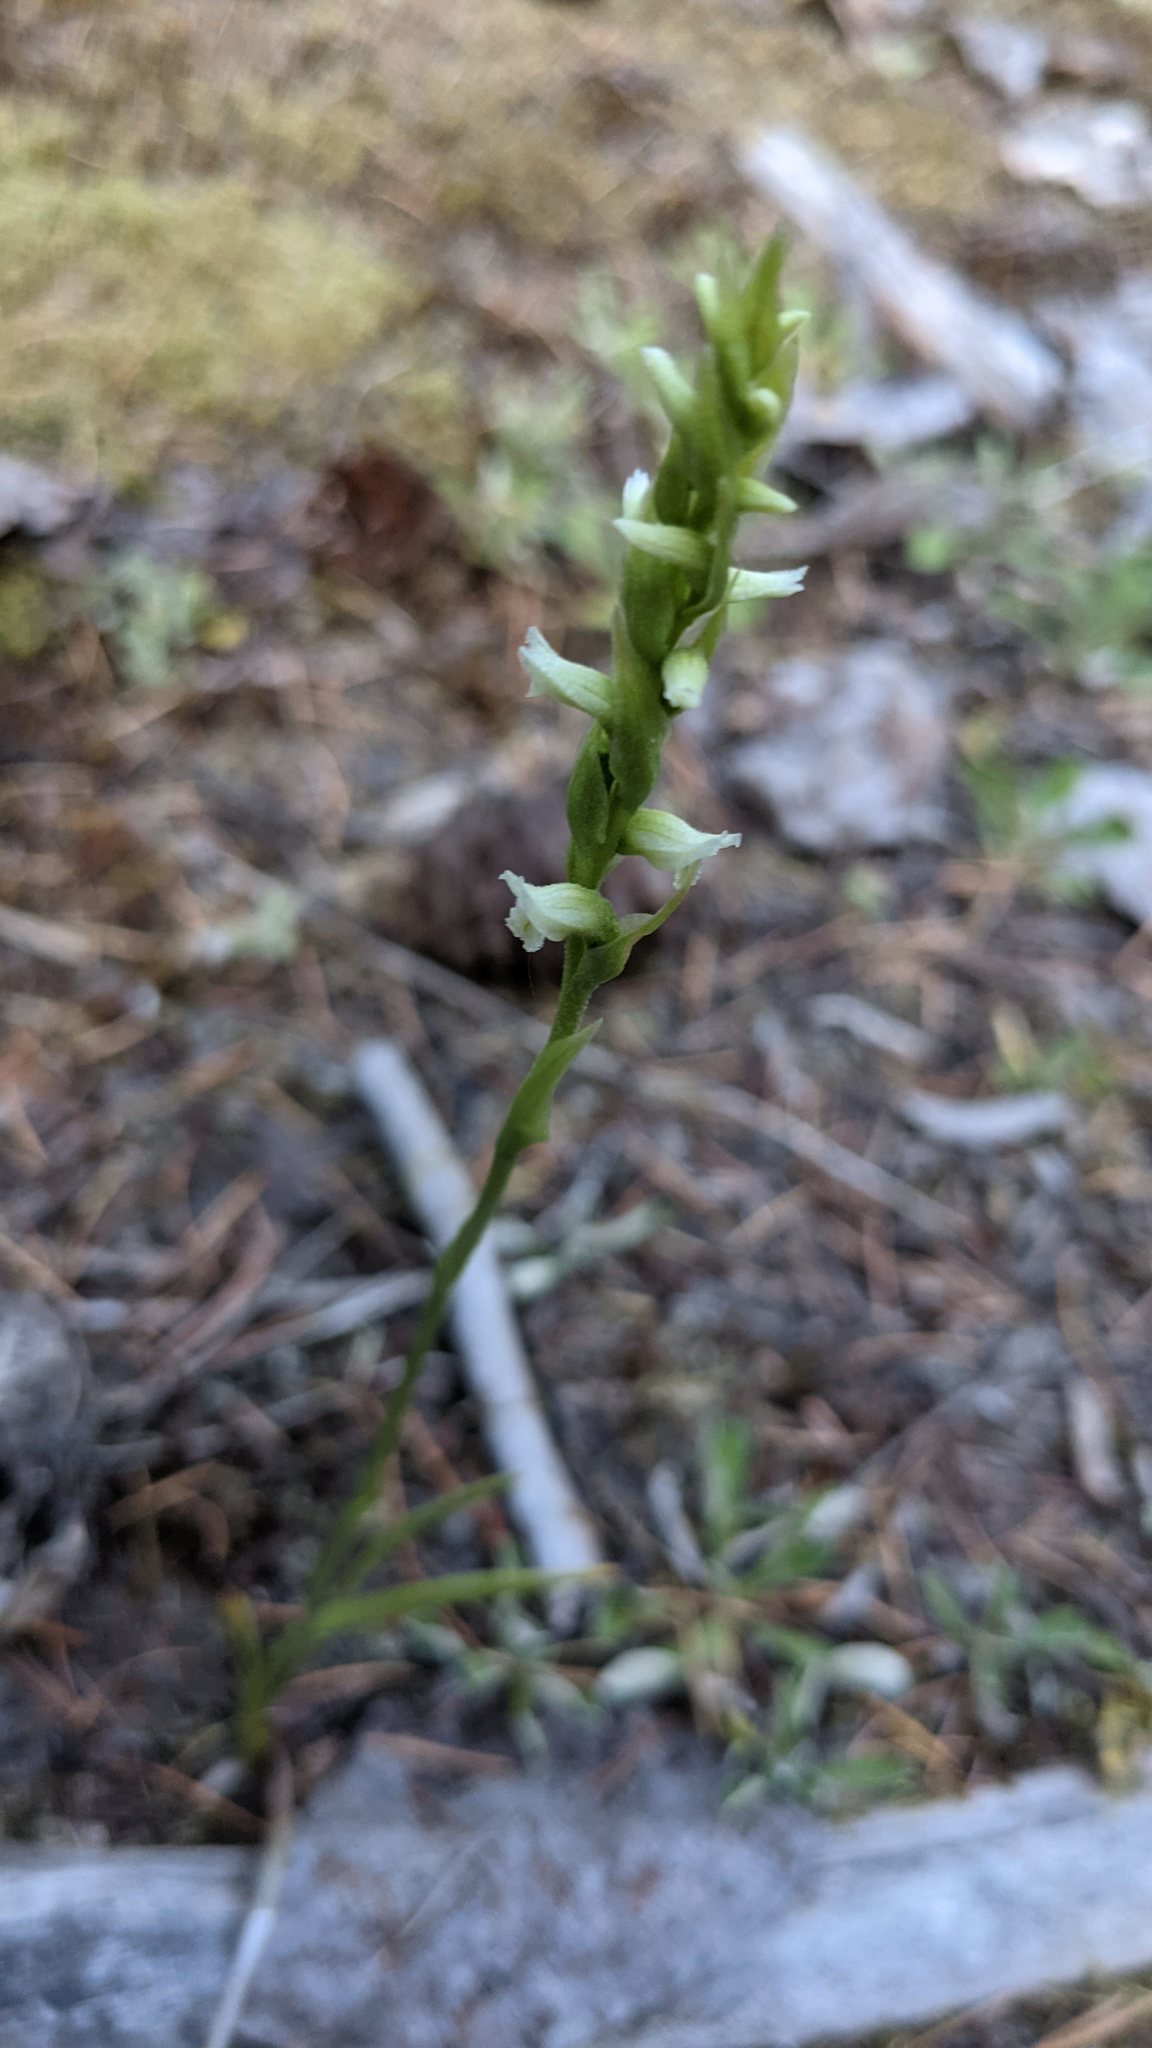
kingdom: Plantae
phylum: Tracheophyta
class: Liliopsida
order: Asparagales
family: Orchidaceae
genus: Spiranthes
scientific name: Spiranthes romanzoffiana
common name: Irish lady's-tresses
